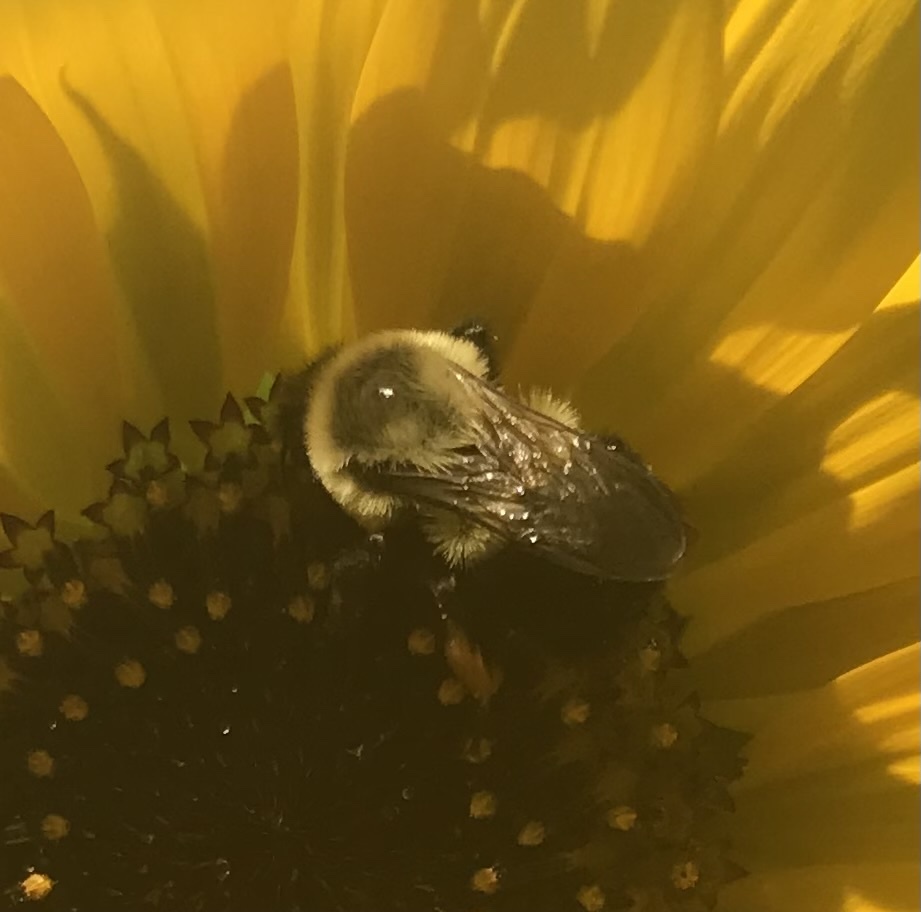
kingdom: Animalia
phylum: Arthropoda
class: Insecta
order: Hymenoptera
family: Apidae
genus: Bombus
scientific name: Bombus impatiens
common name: Common eastern bumble bee
